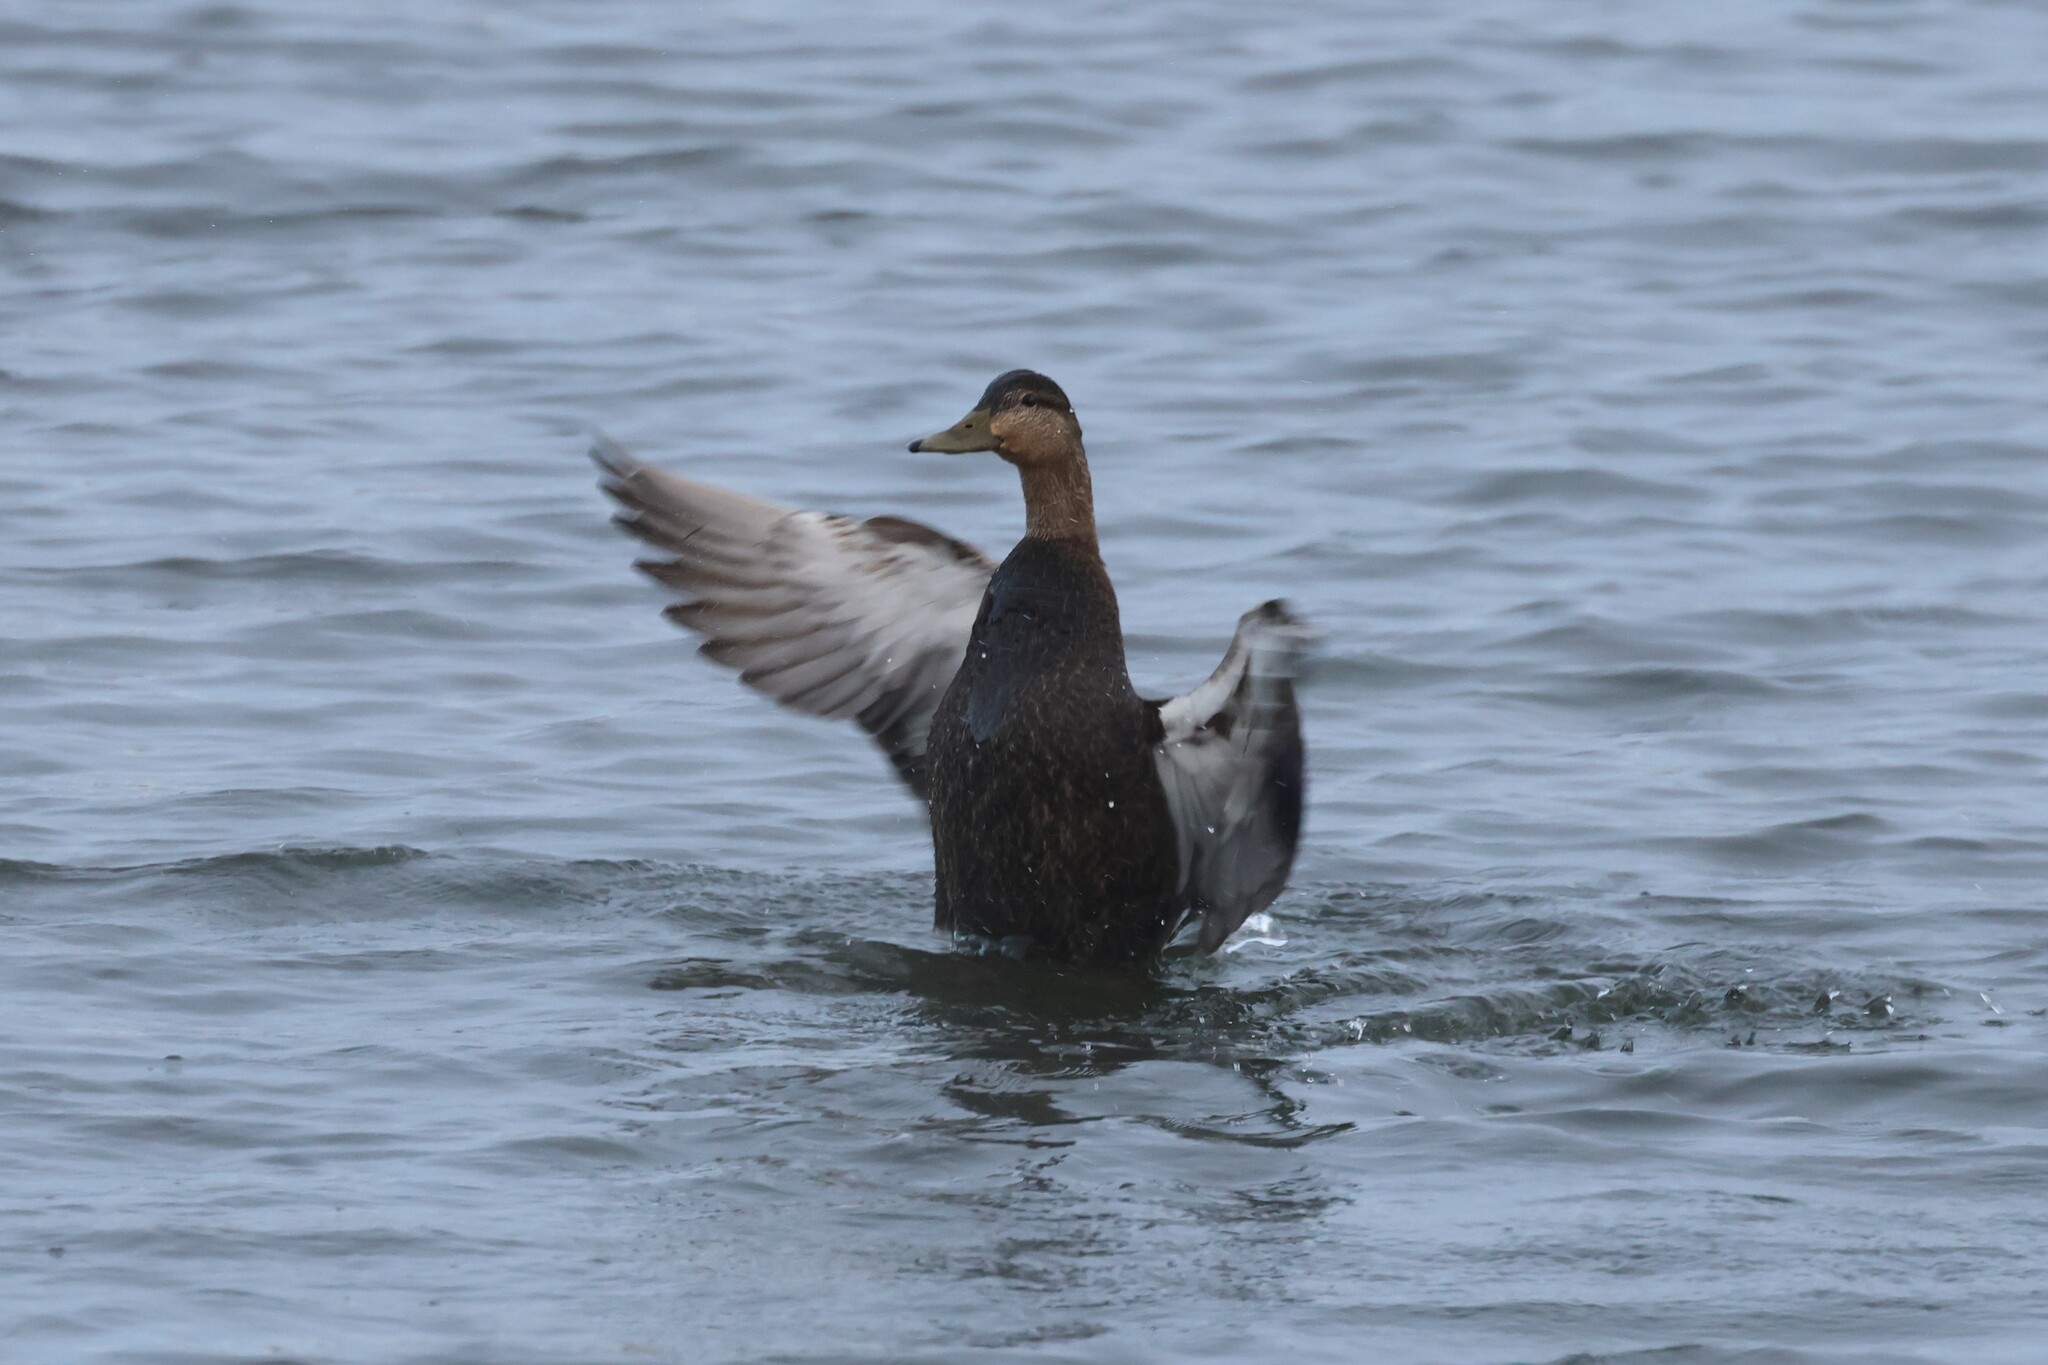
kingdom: Animalia
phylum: Chordata
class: Aves
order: Anseriformes
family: Anatidae
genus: Anas
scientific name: Anas rubripes
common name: American black duck
